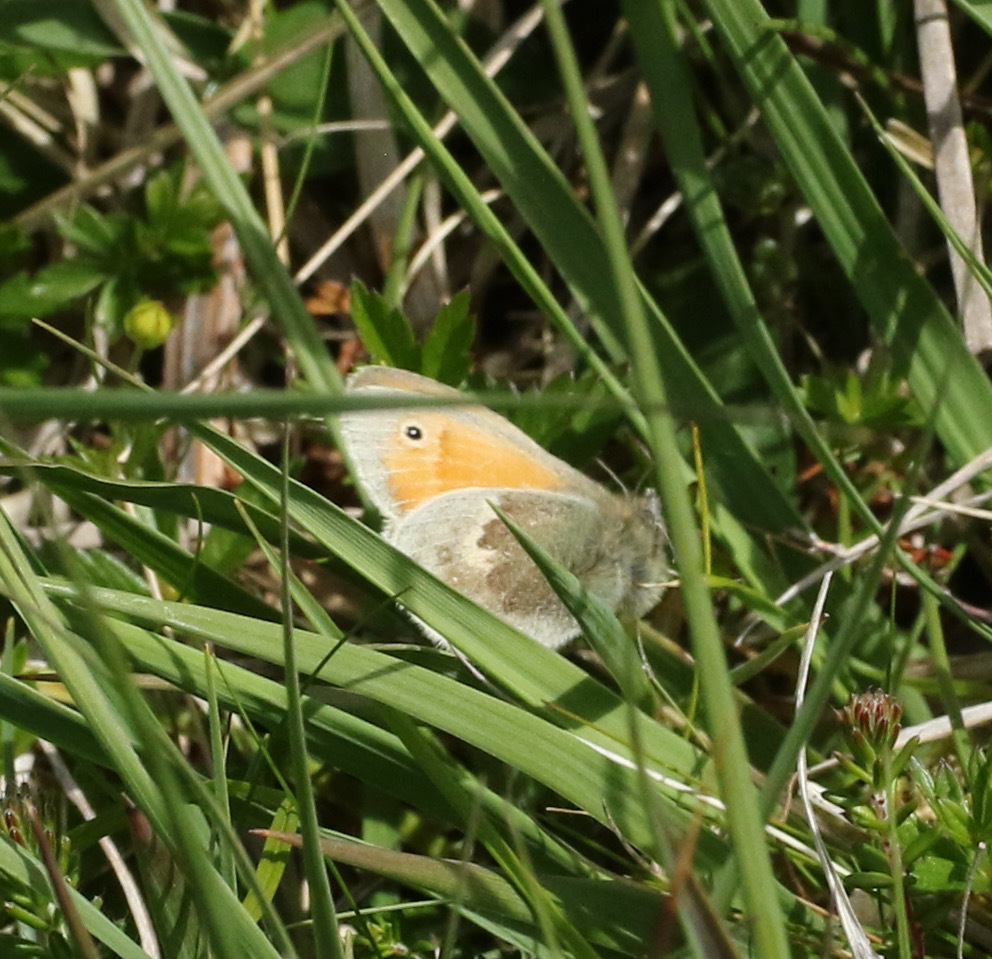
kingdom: Animalia
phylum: Arthropoda
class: Insecta
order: Lepidoptera
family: Nymphalidae
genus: Coenonympha
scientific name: Coenonympha pamphilus
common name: Small heath
